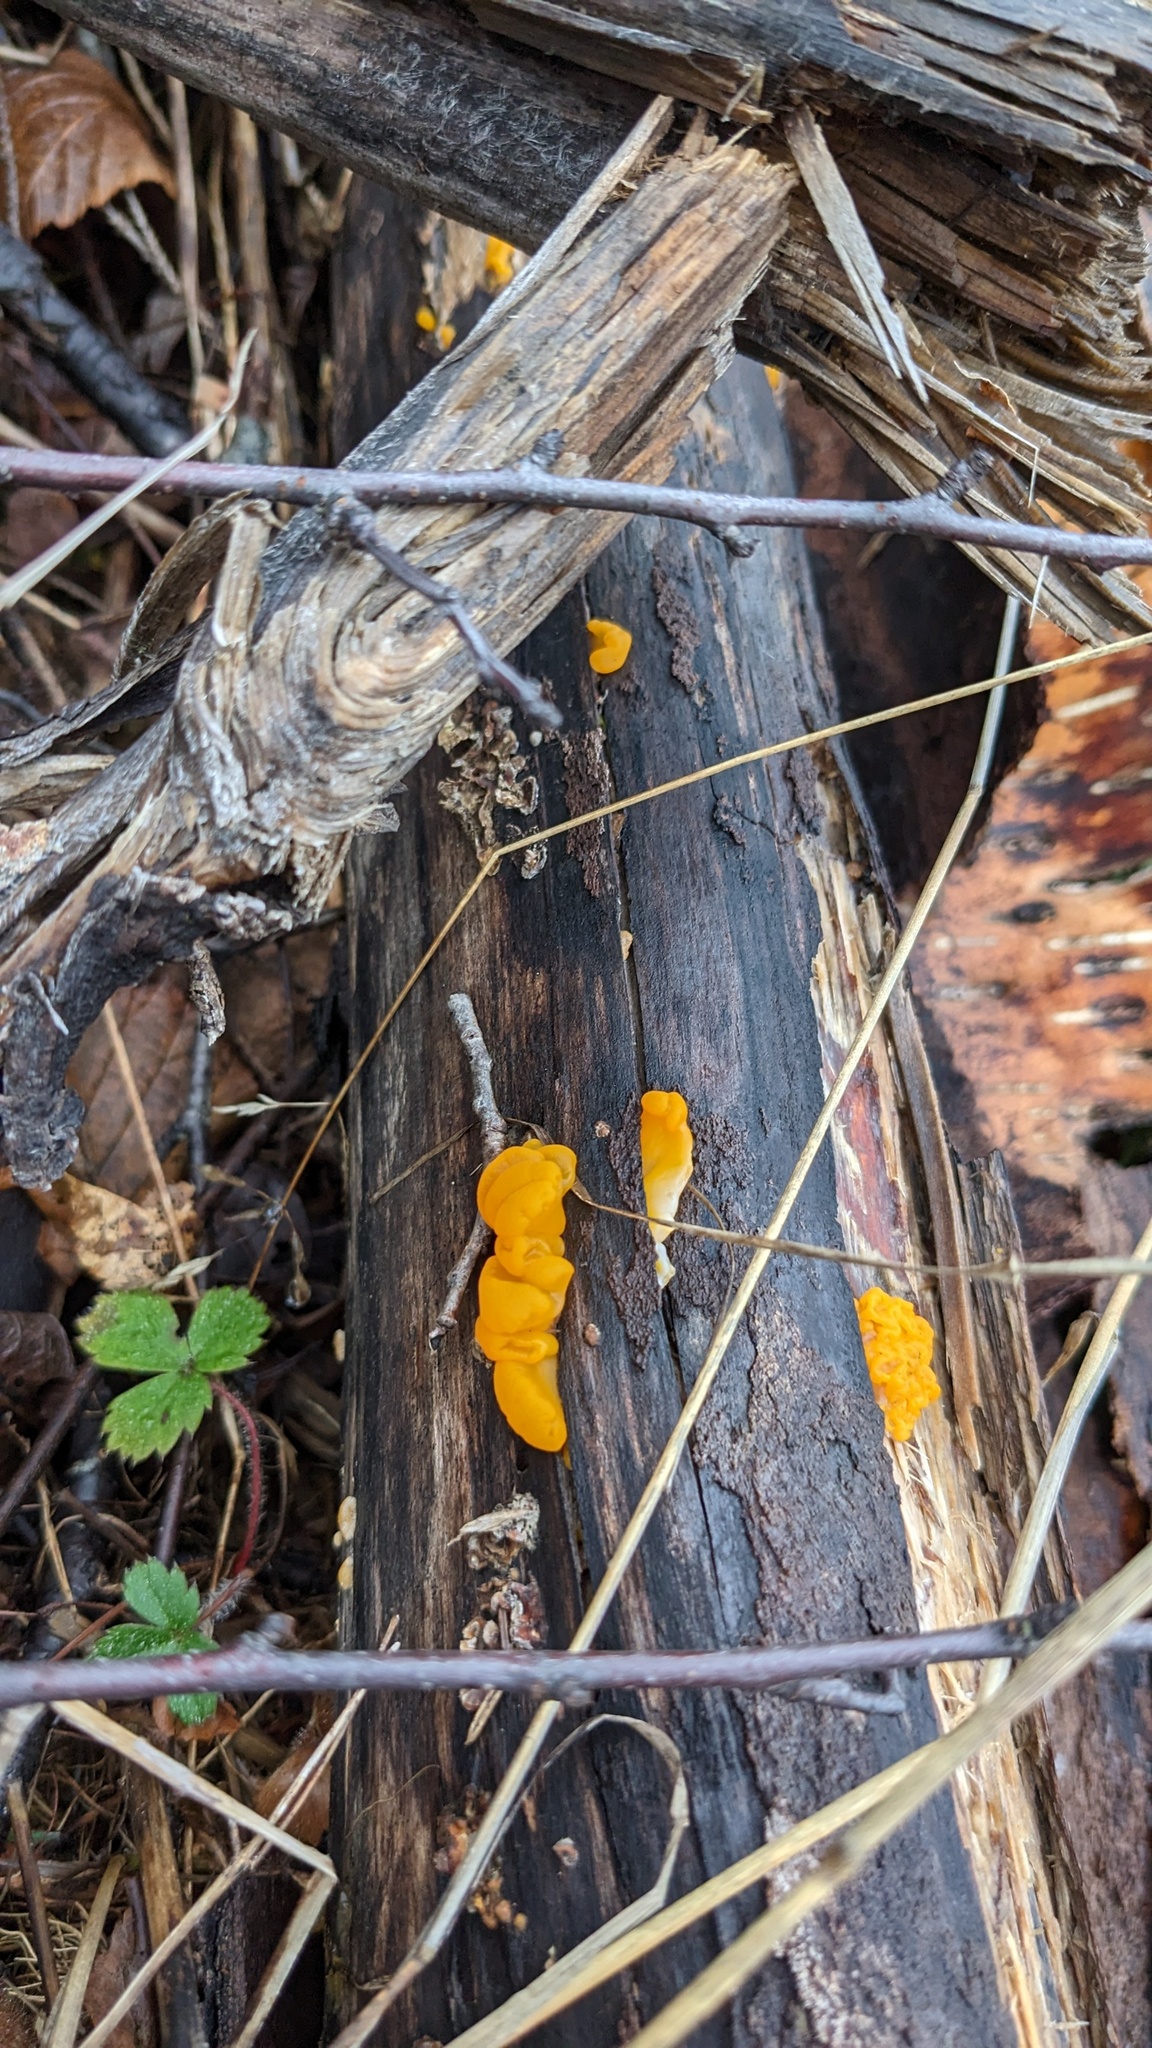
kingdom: Fungi
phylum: Basidiomycota
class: Dacrymycetes
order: Dacrymycetales
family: Dacrymycetaceae
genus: Dacrymyces
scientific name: Dacrymyces chrysospermus
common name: Orange jelly spot
